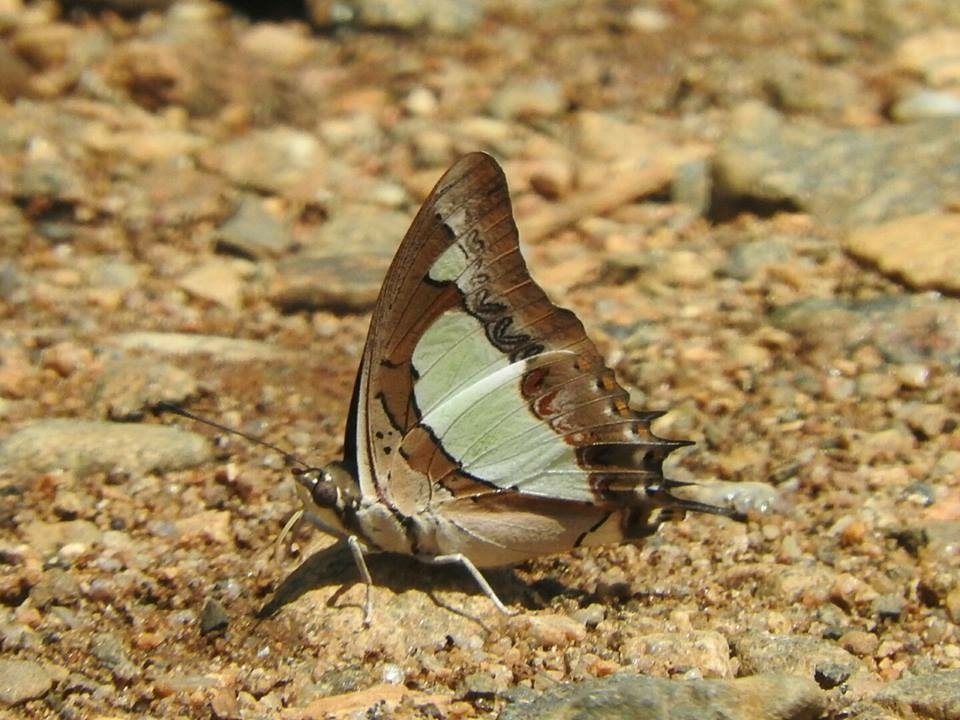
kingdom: Animalia
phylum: Arthropoda
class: Insecta
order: Lepidoptera
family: Nymphalidae
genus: Polyura
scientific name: Polyura
